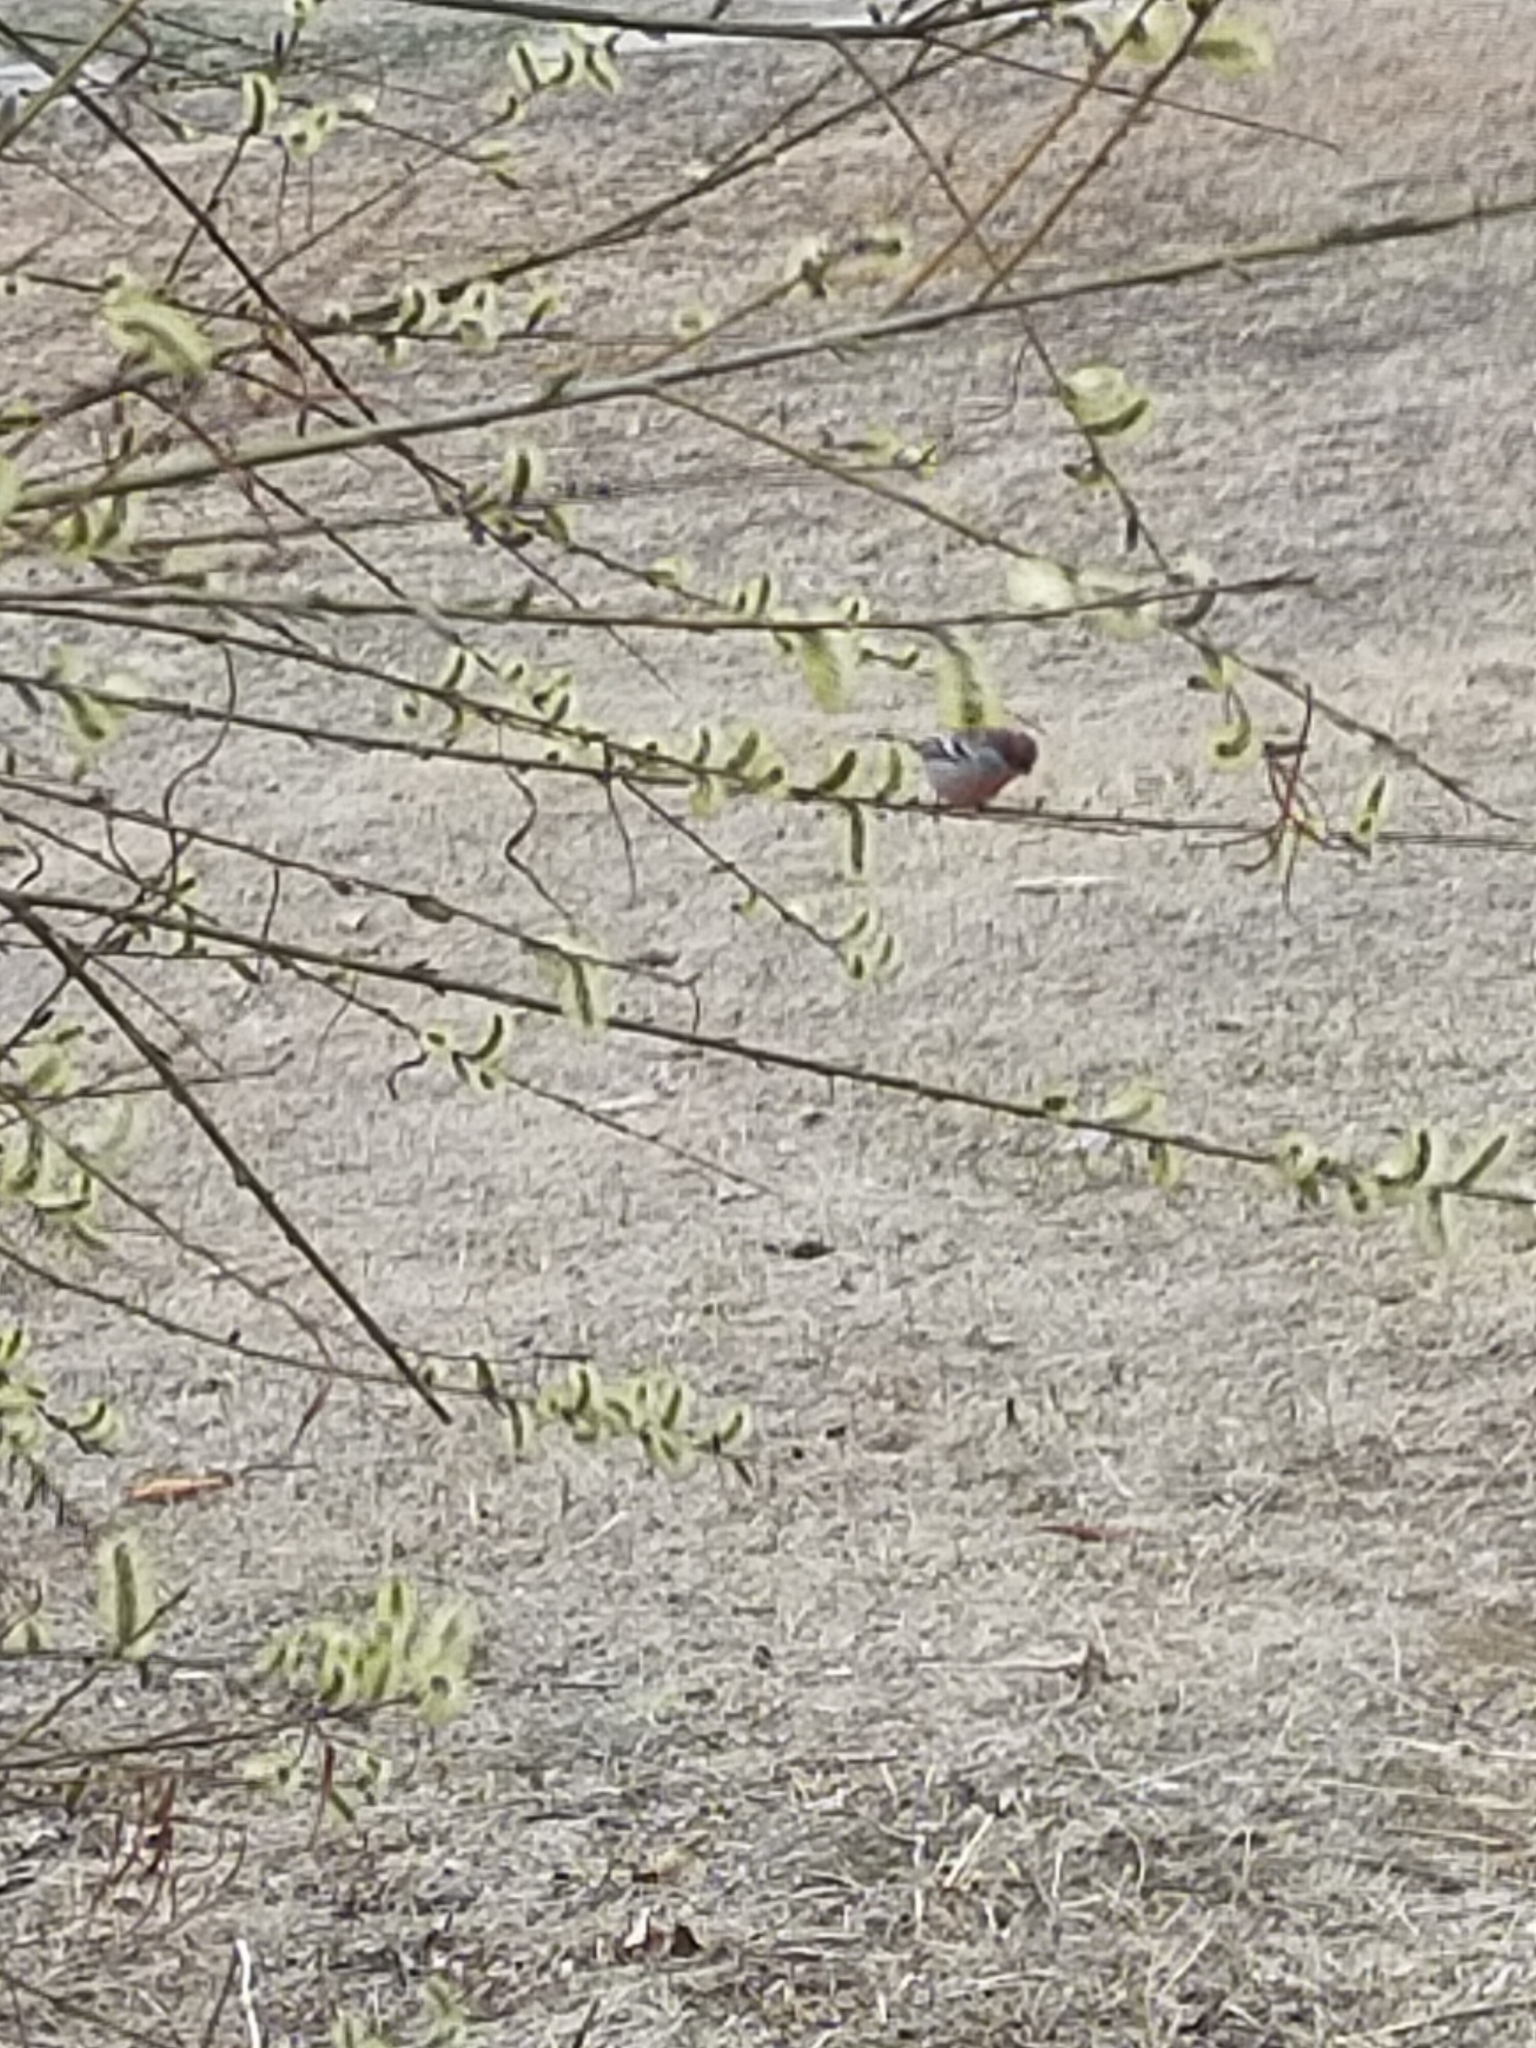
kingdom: Animalia
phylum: Chordata
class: Aves
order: Passeriformes
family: Fringillidae
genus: Carpodacus
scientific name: Carpodacus sibiricus
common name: Long-tailed rosefinch
